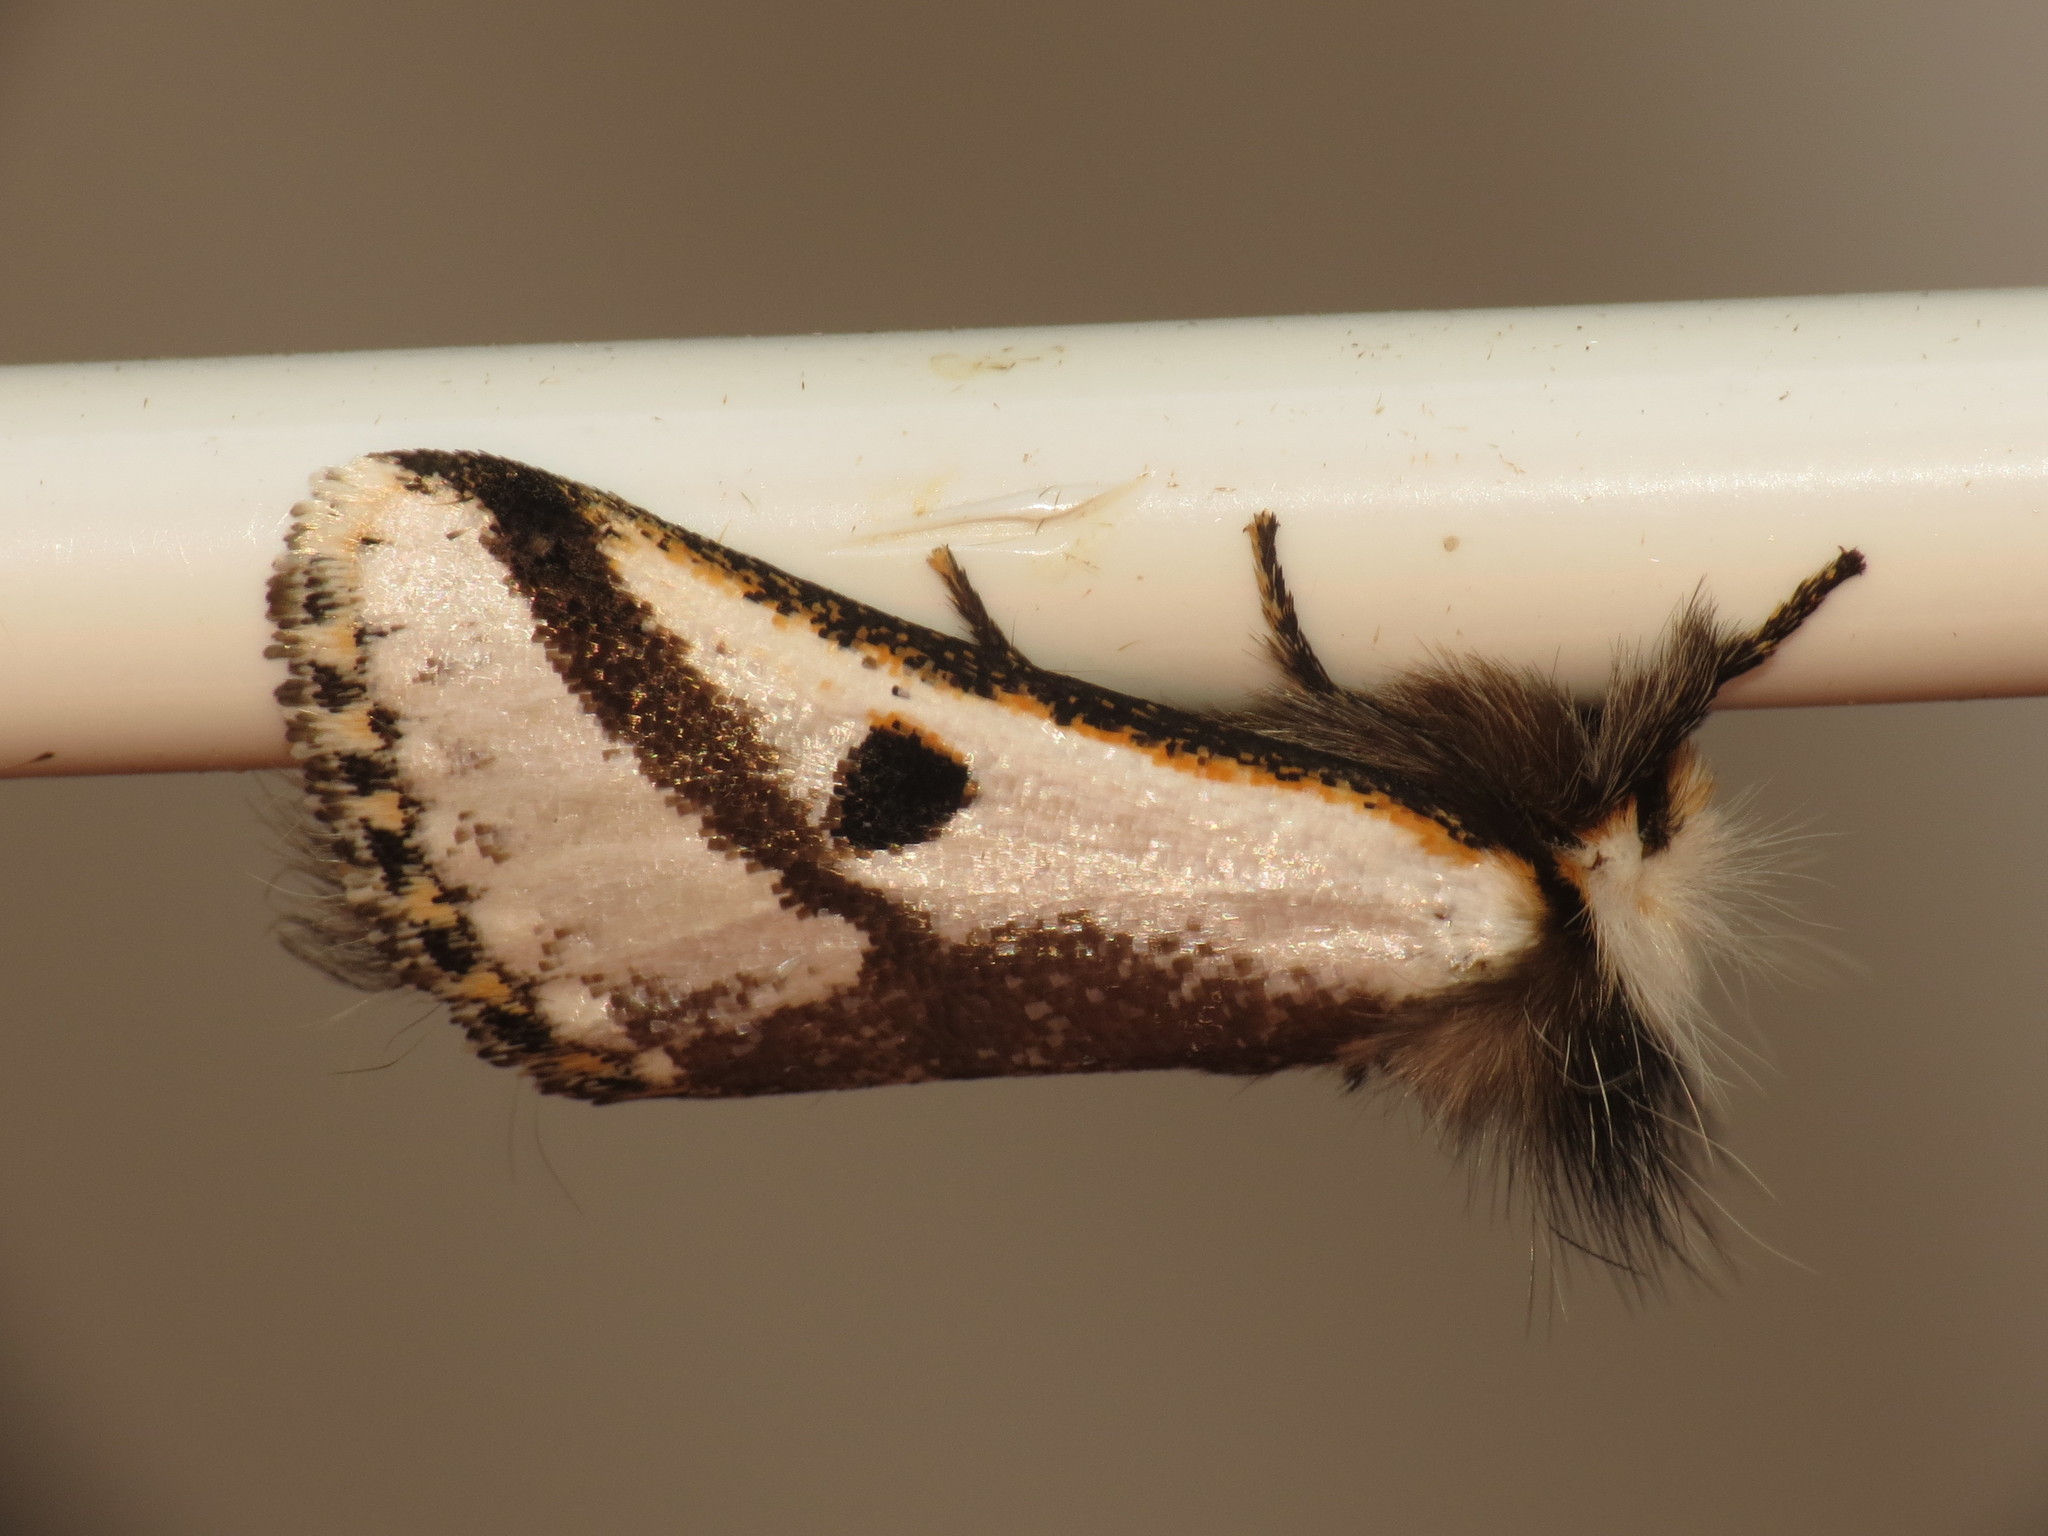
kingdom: Animalia
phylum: Arthropoda
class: Insecta
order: Lepidoptera
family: Notodontidae
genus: Epicoma
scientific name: Epicoma melanospila
